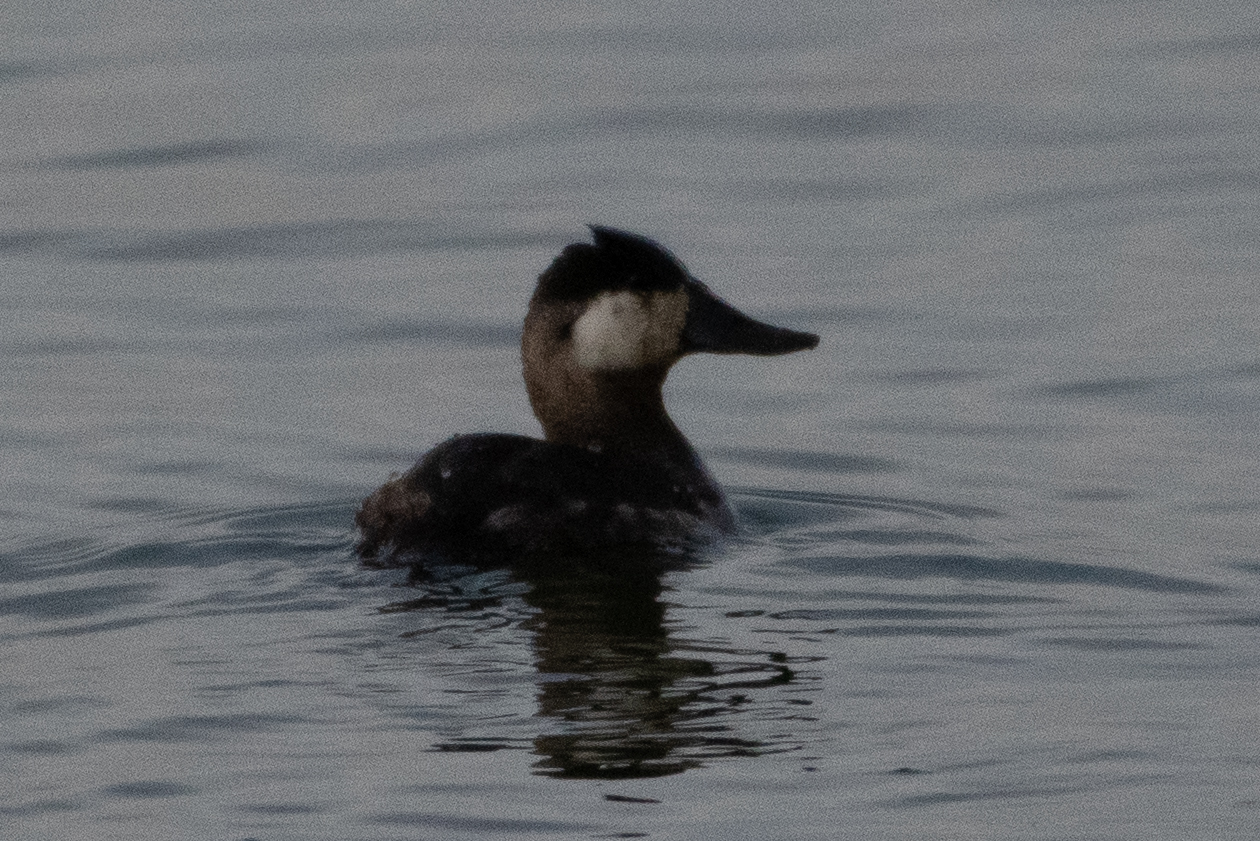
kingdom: Animalia
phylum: Chordata
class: Aves
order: Anseriformes
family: Anatidae
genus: Oxyura
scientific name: Oxyura jamaicensis
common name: Ruddy duck
